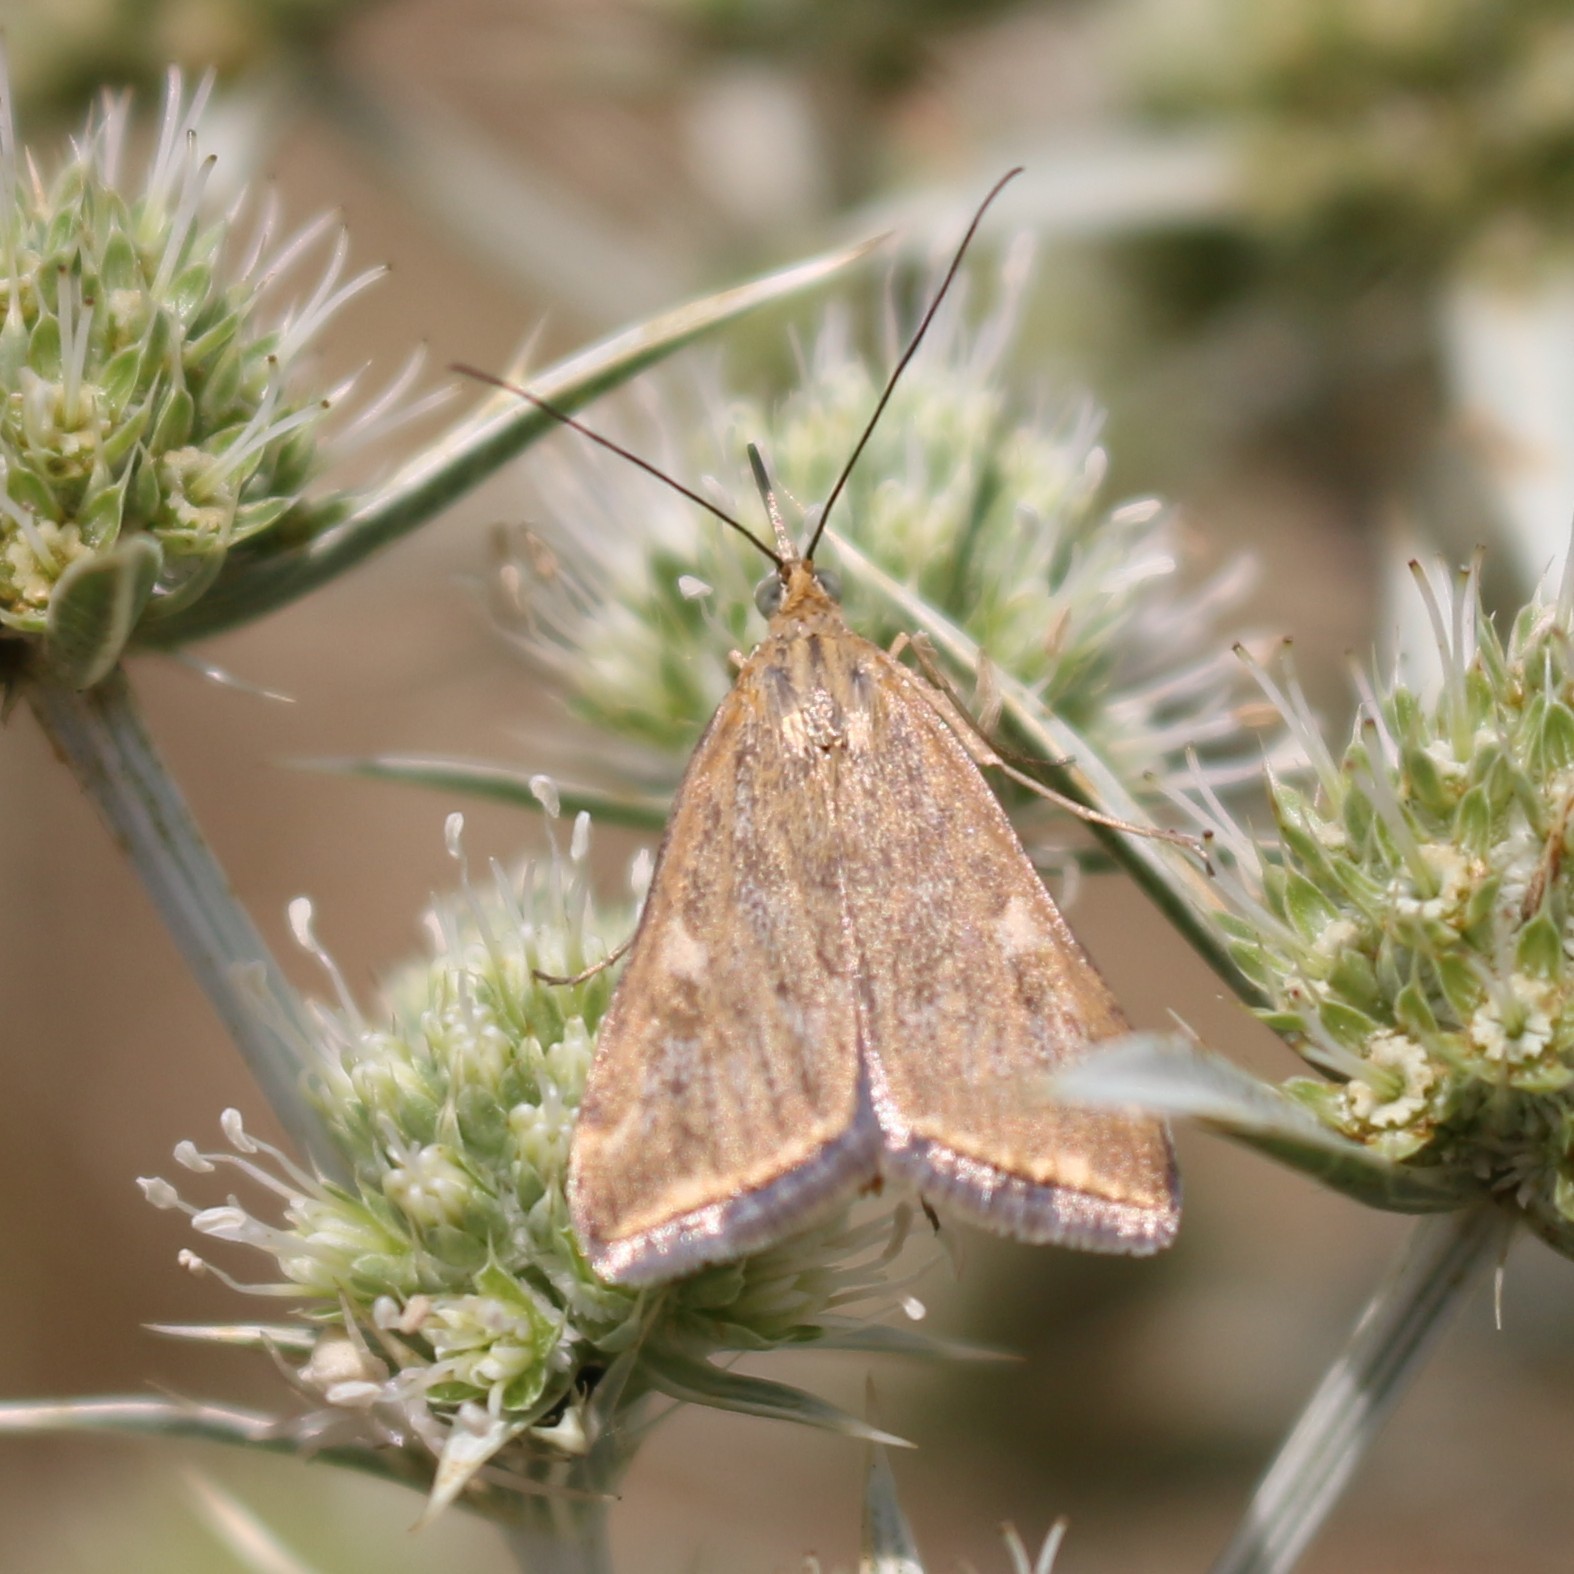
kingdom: Animalia
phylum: Arthropoda
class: Insecta
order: Lepidoptera
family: Crambidae
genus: Loxostege
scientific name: Loxostege sticticalis
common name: Crambid moth
